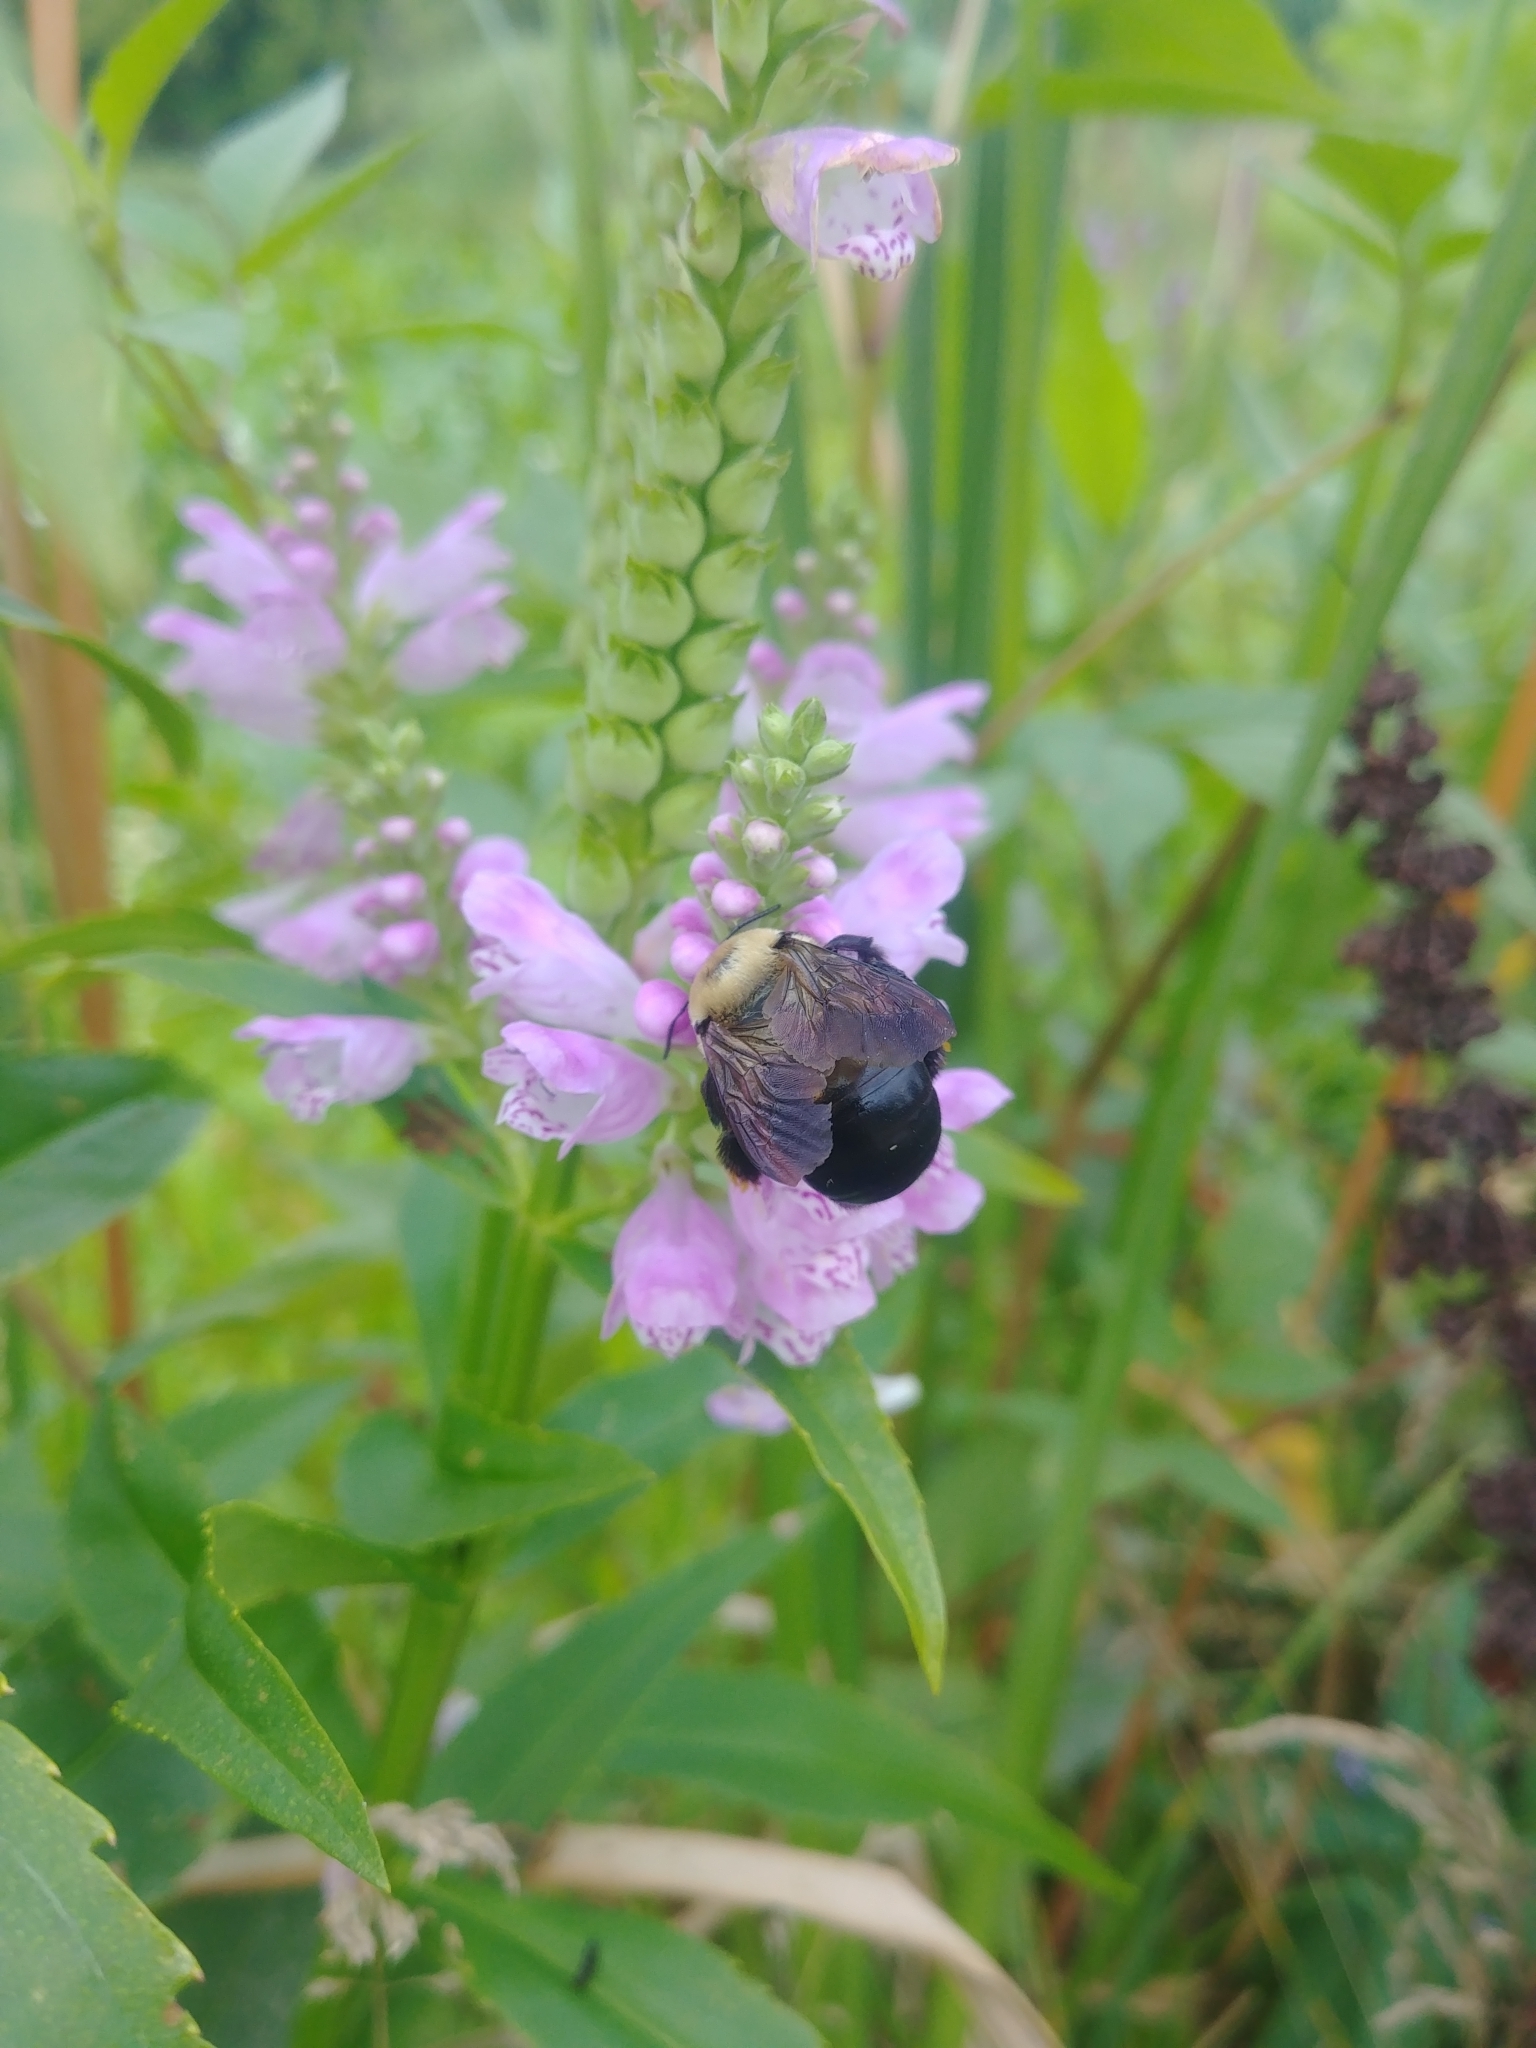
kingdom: Animalia
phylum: Arthropoda
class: Insecta
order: Hymenoptera
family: Apidae
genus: Xylocopa
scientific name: Xylocopa virginica
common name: Carpenter bee
